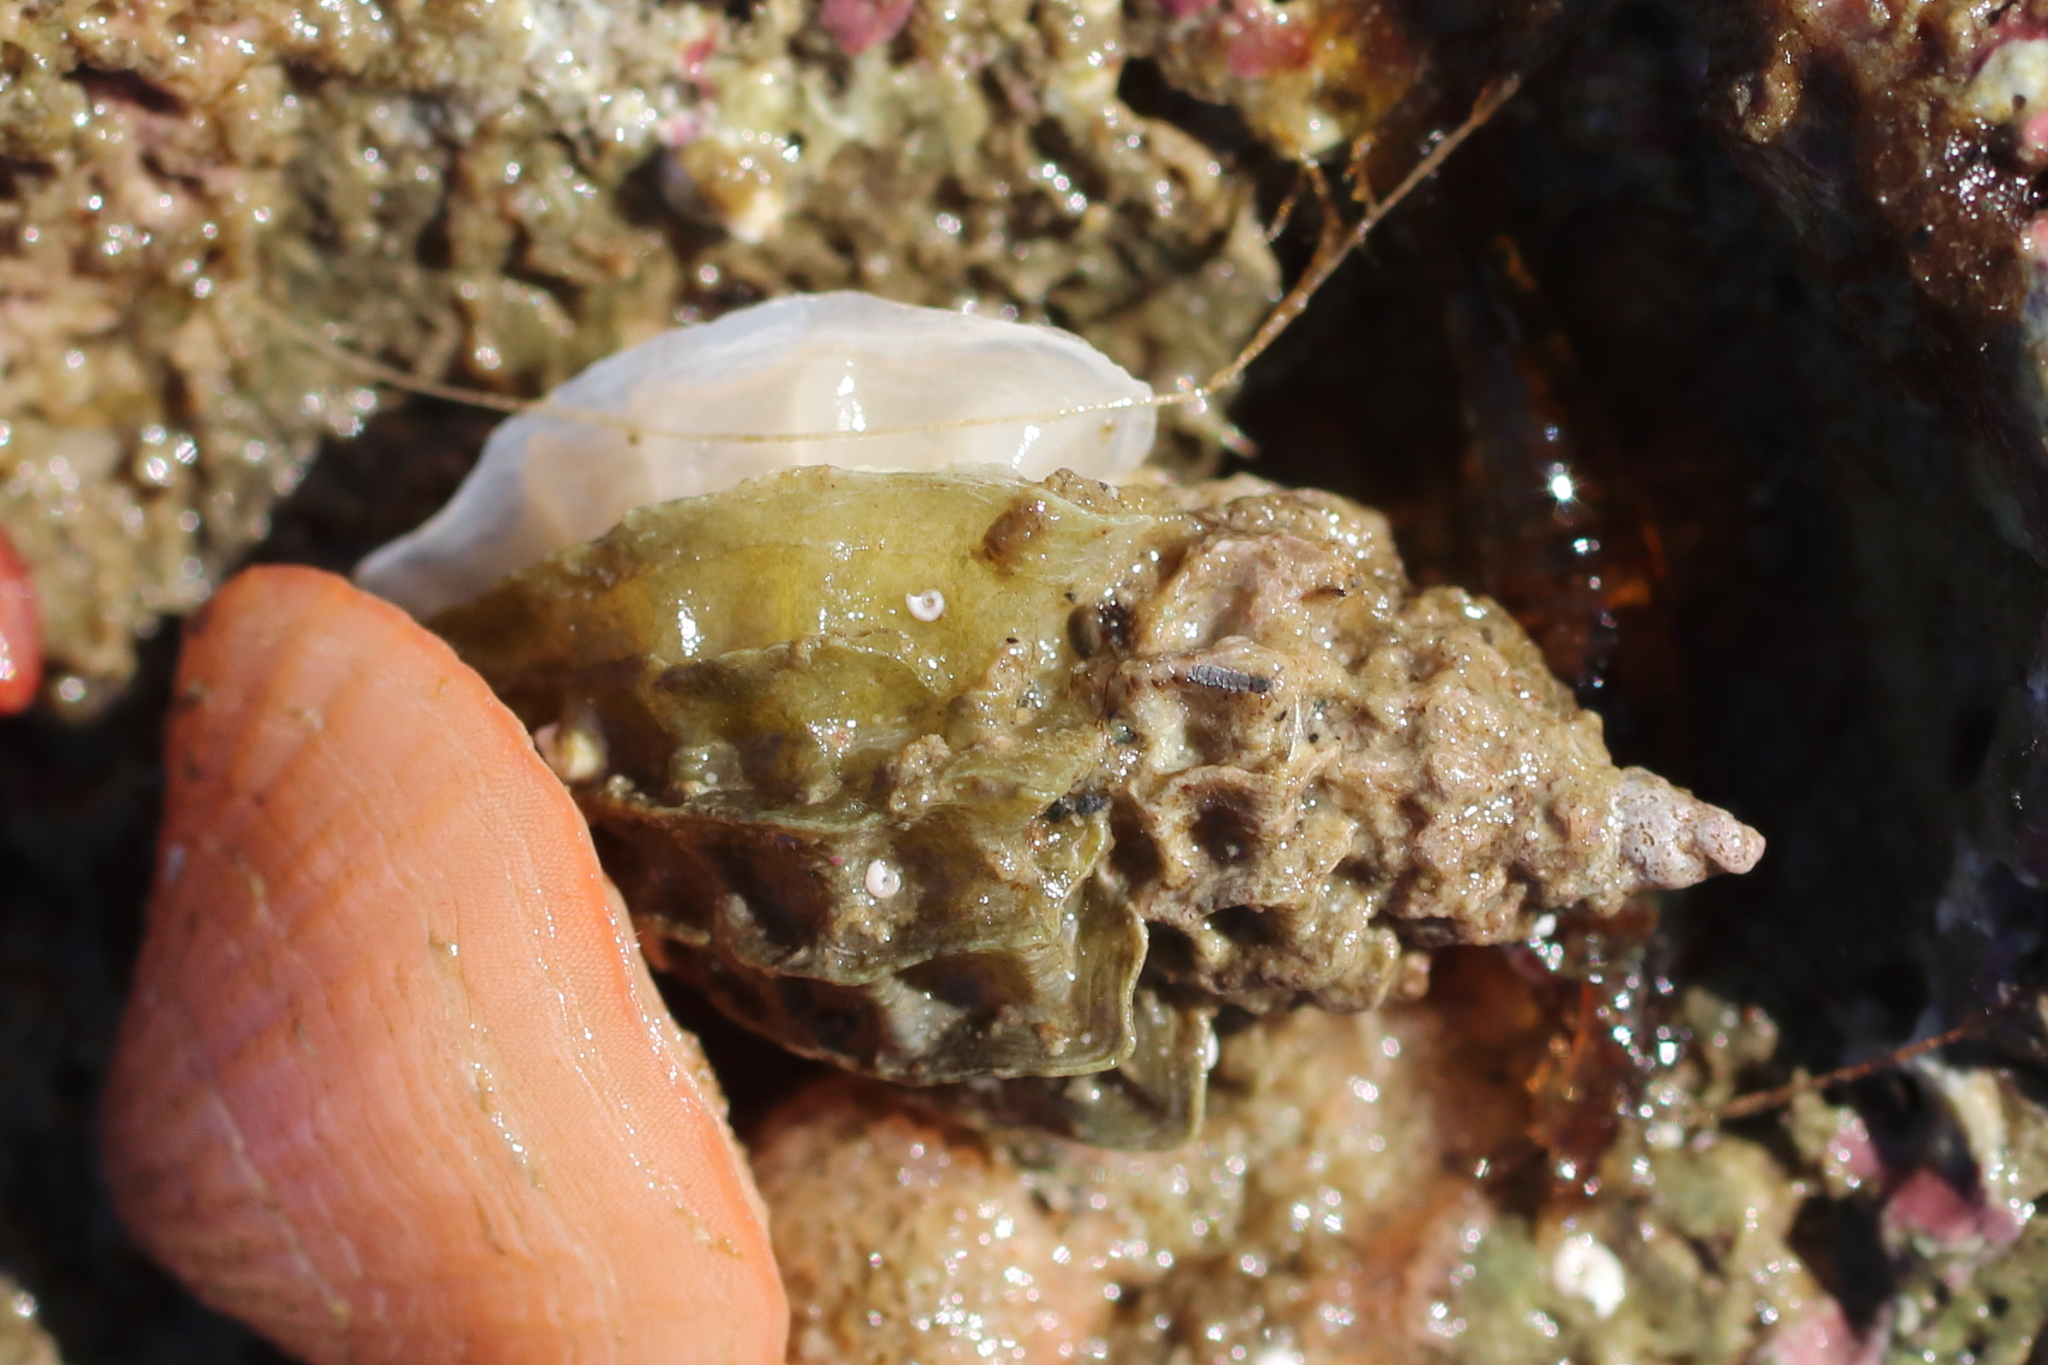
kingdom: Animalia
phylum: Mollusca
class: Gastropoda
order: Neogastropoda
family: Muricidae
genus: Scabrotrophon
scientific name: Scabrotrophon stuarti
